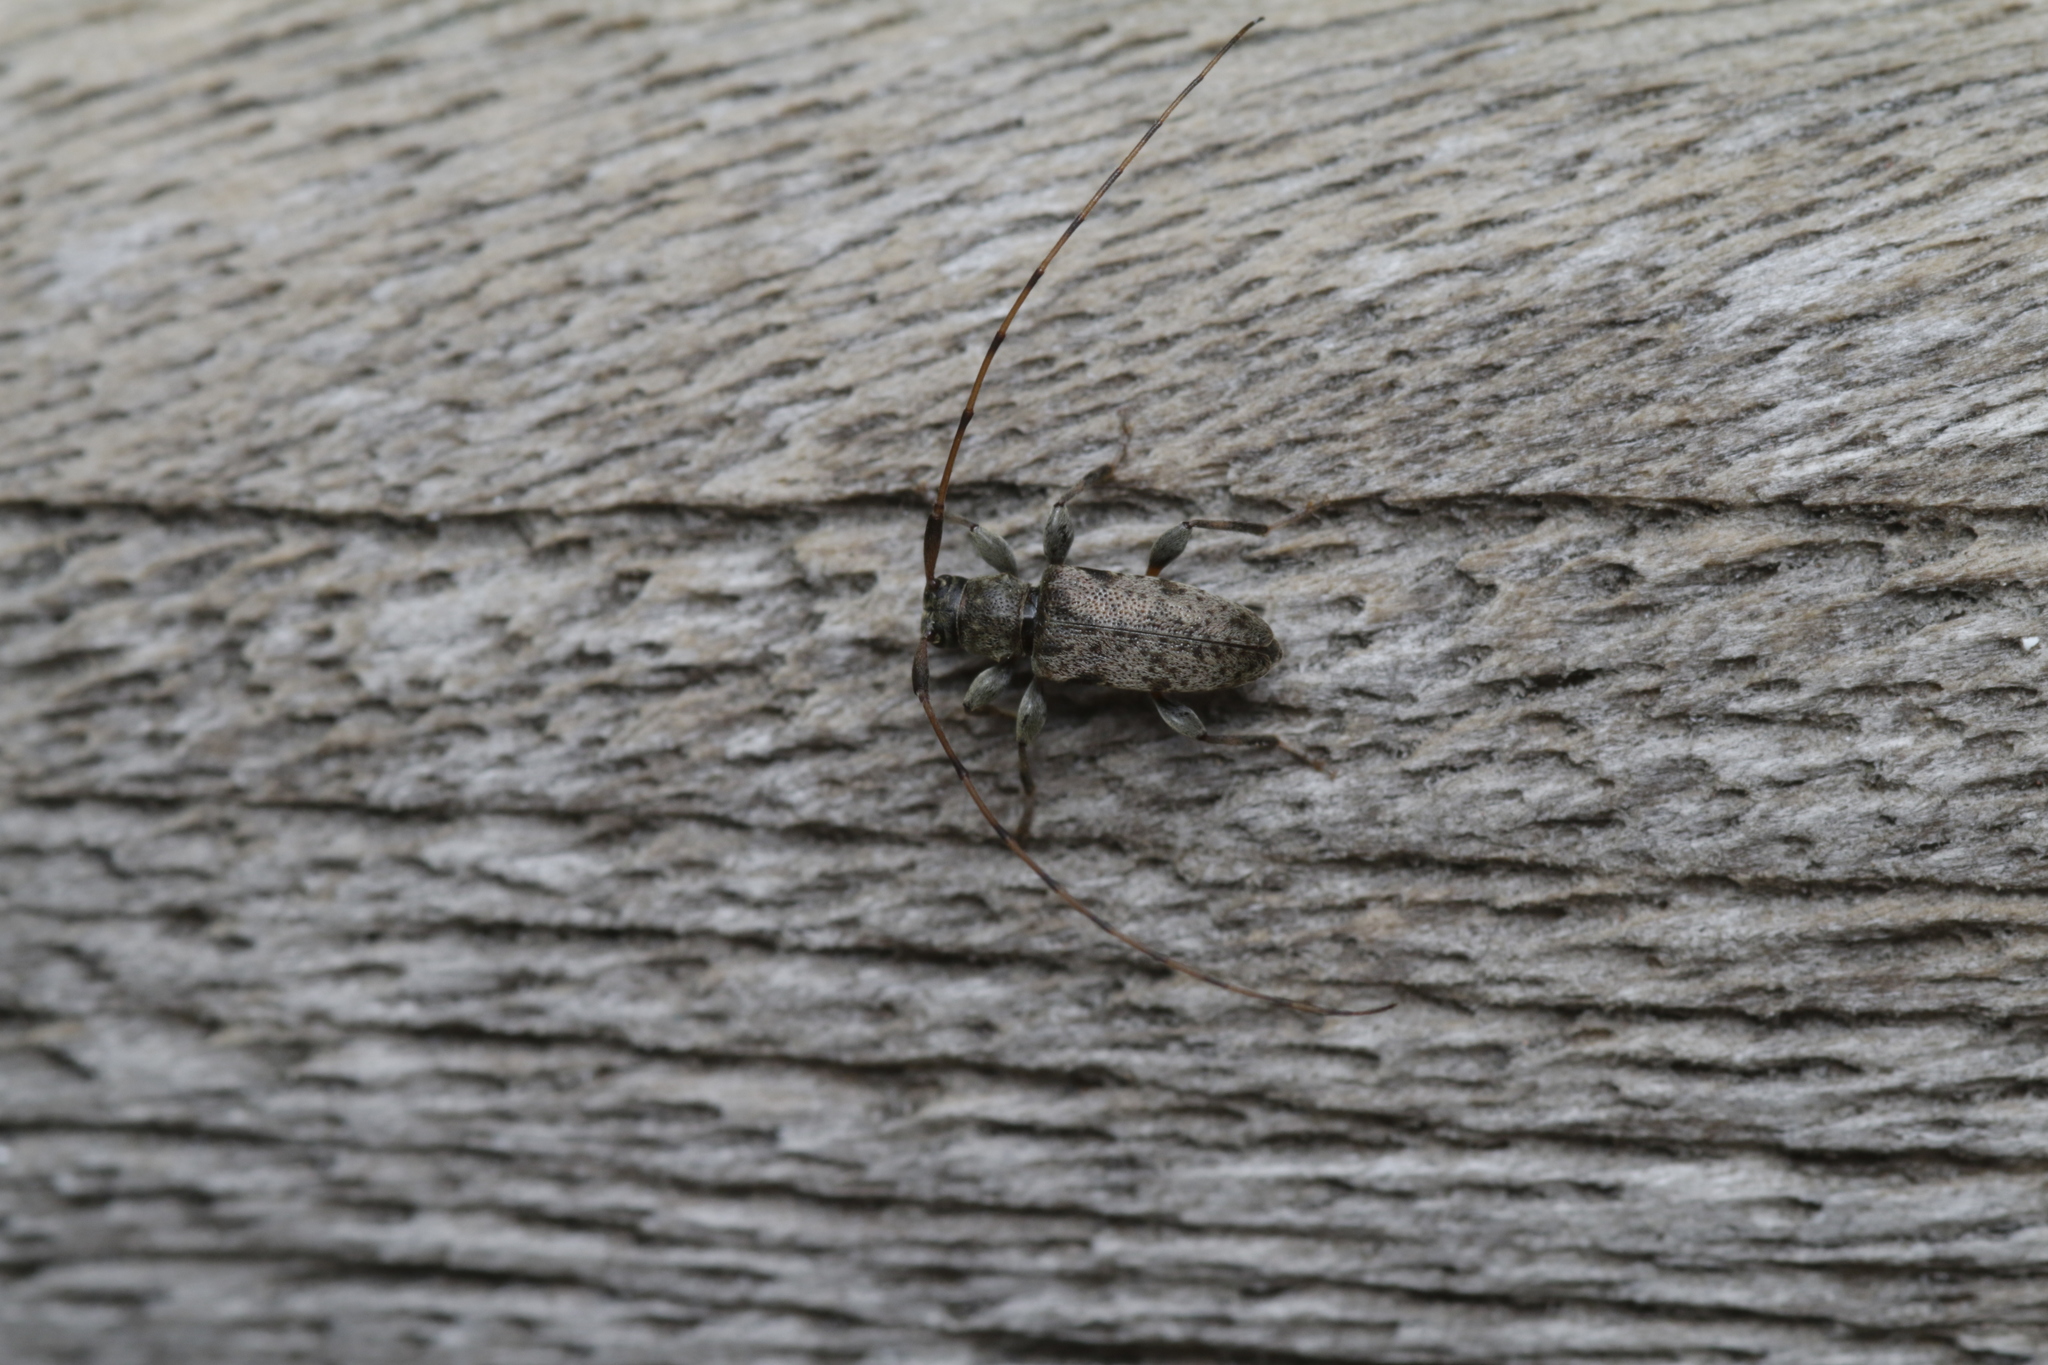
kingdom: Animalia
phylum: Arthropoda
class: Insecta
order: Coleoptera
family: Cerambycidae
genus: Leiopus
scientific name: Leiopus femoratus
